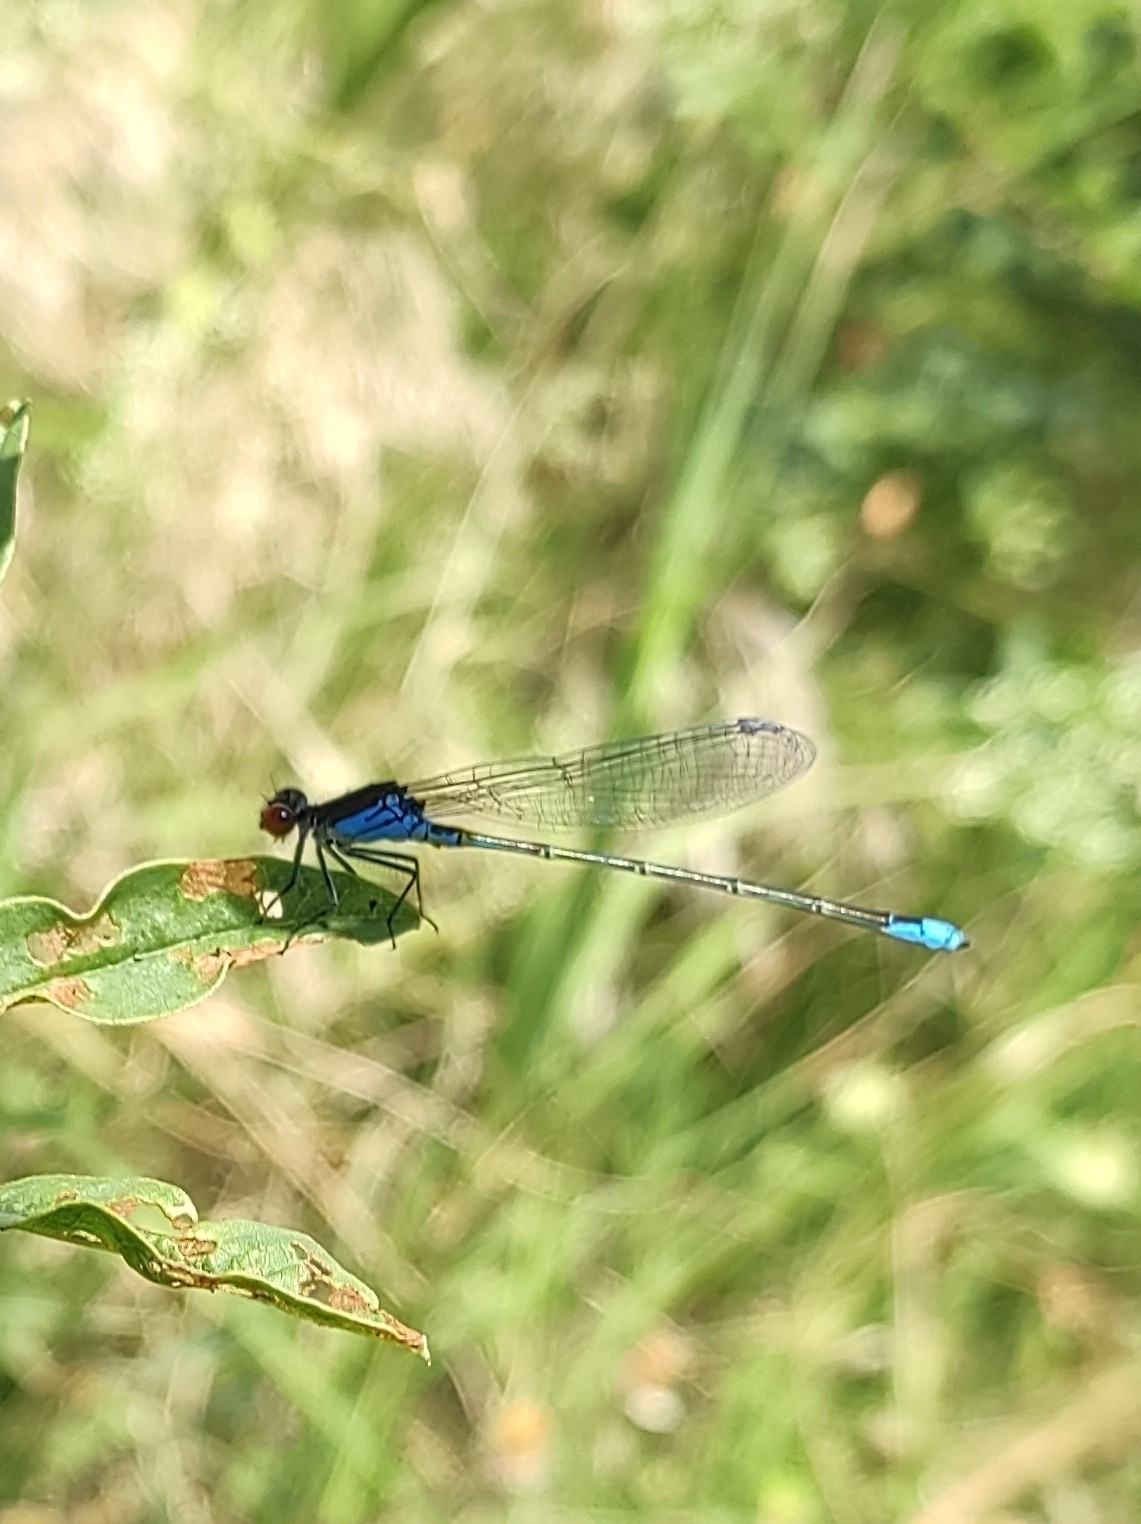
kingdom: Animalia
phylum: Arthropoda
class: Insecta
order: Odonata
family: Coenagrionidae
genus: Erythromma
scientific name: Erythromma viridulum
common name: Small red-eyed damselfly
